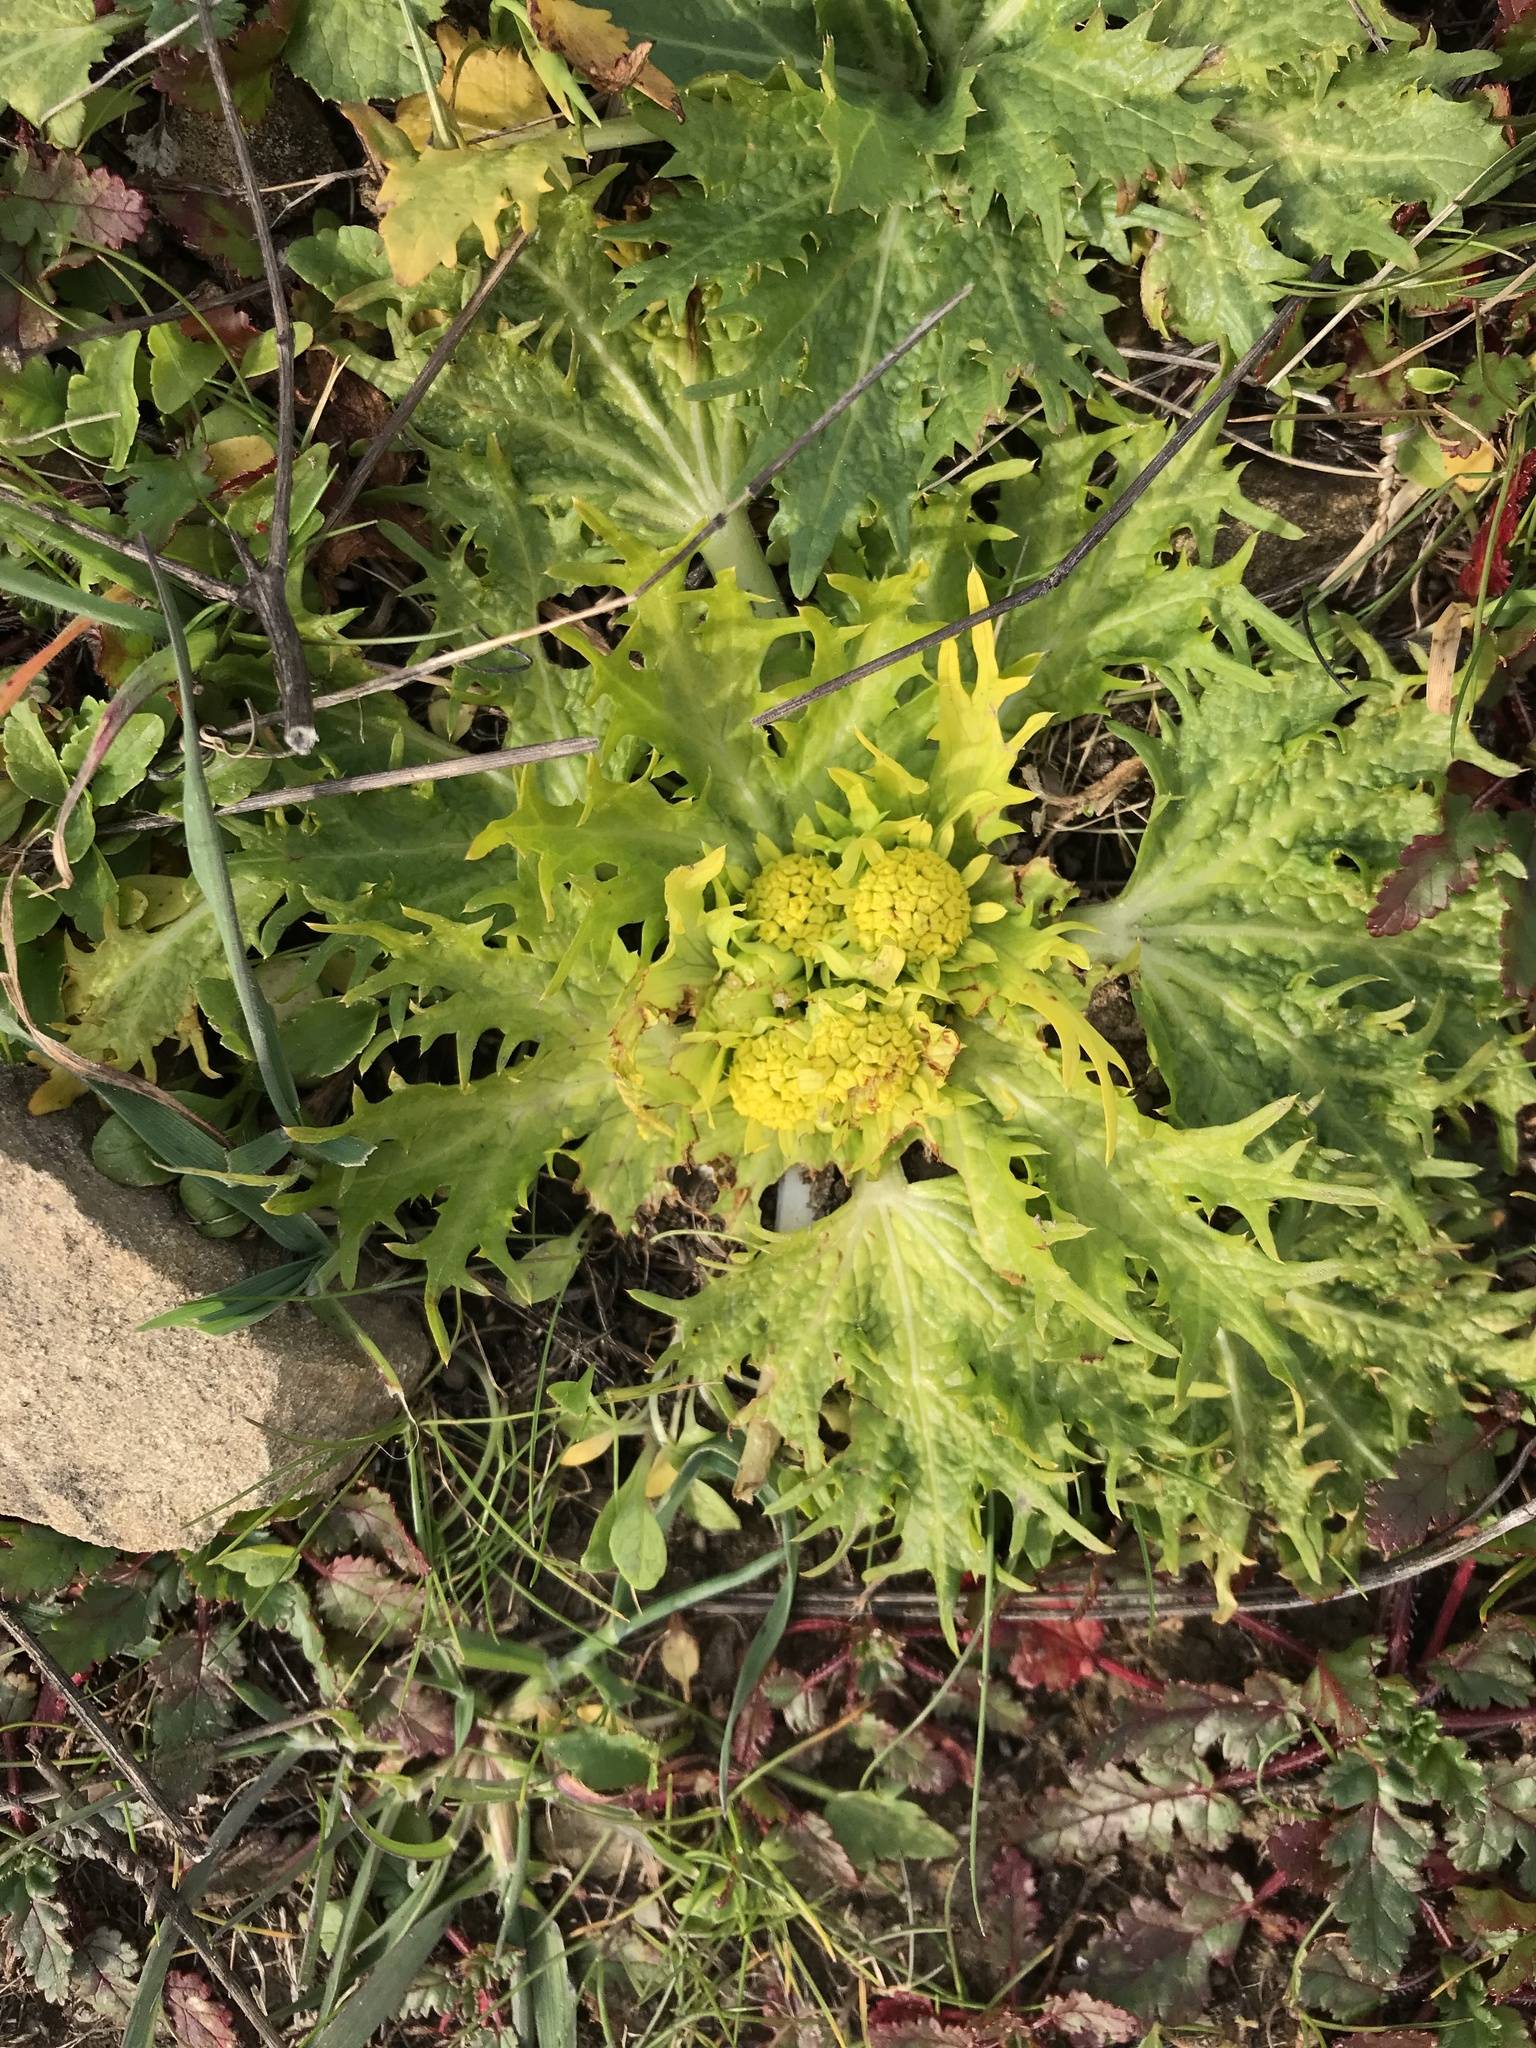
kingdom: Plantae
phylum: Tracheophyta
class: Magnoliopsida
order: Apiales
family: Apiaceae
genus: Sanicula
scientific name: Sanicula arctopoides
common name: Footsteps-of-spring
